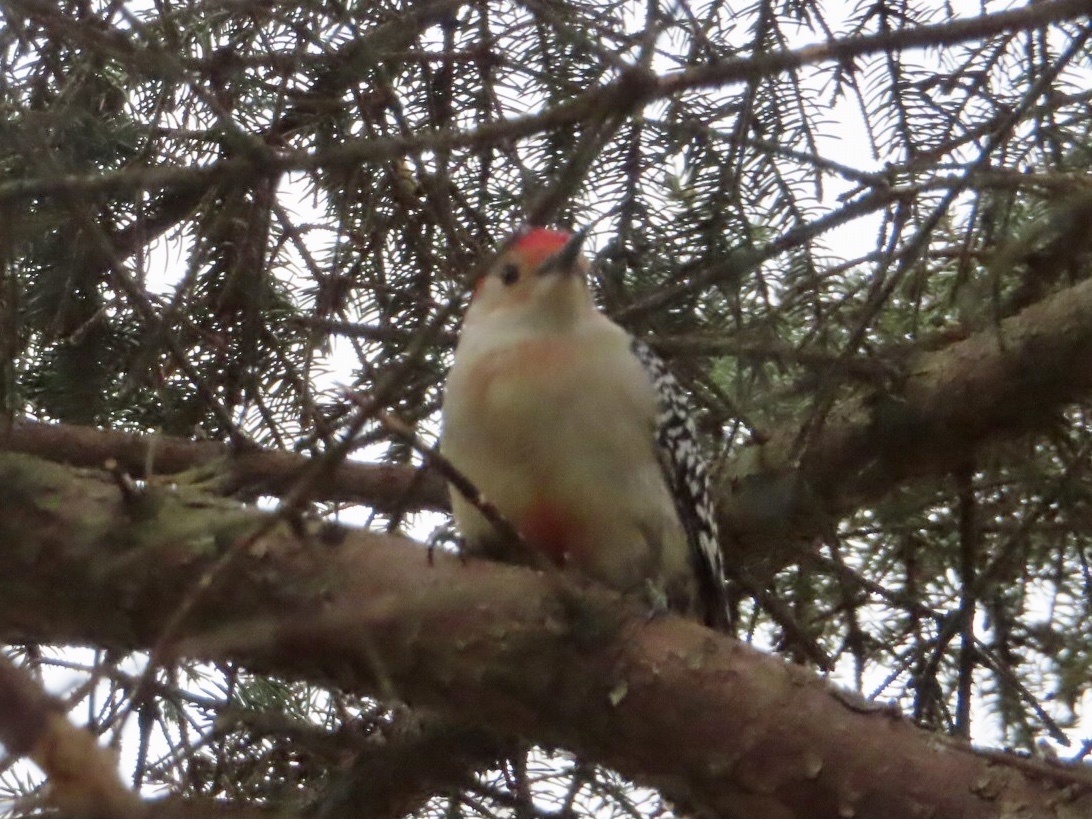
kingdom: Animalia
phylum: Chordata
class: Aves
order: Piciformes
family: Picidae
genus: Melanerpes
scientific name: Melanerpes carolinus
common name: Red-bellied woodpecker
